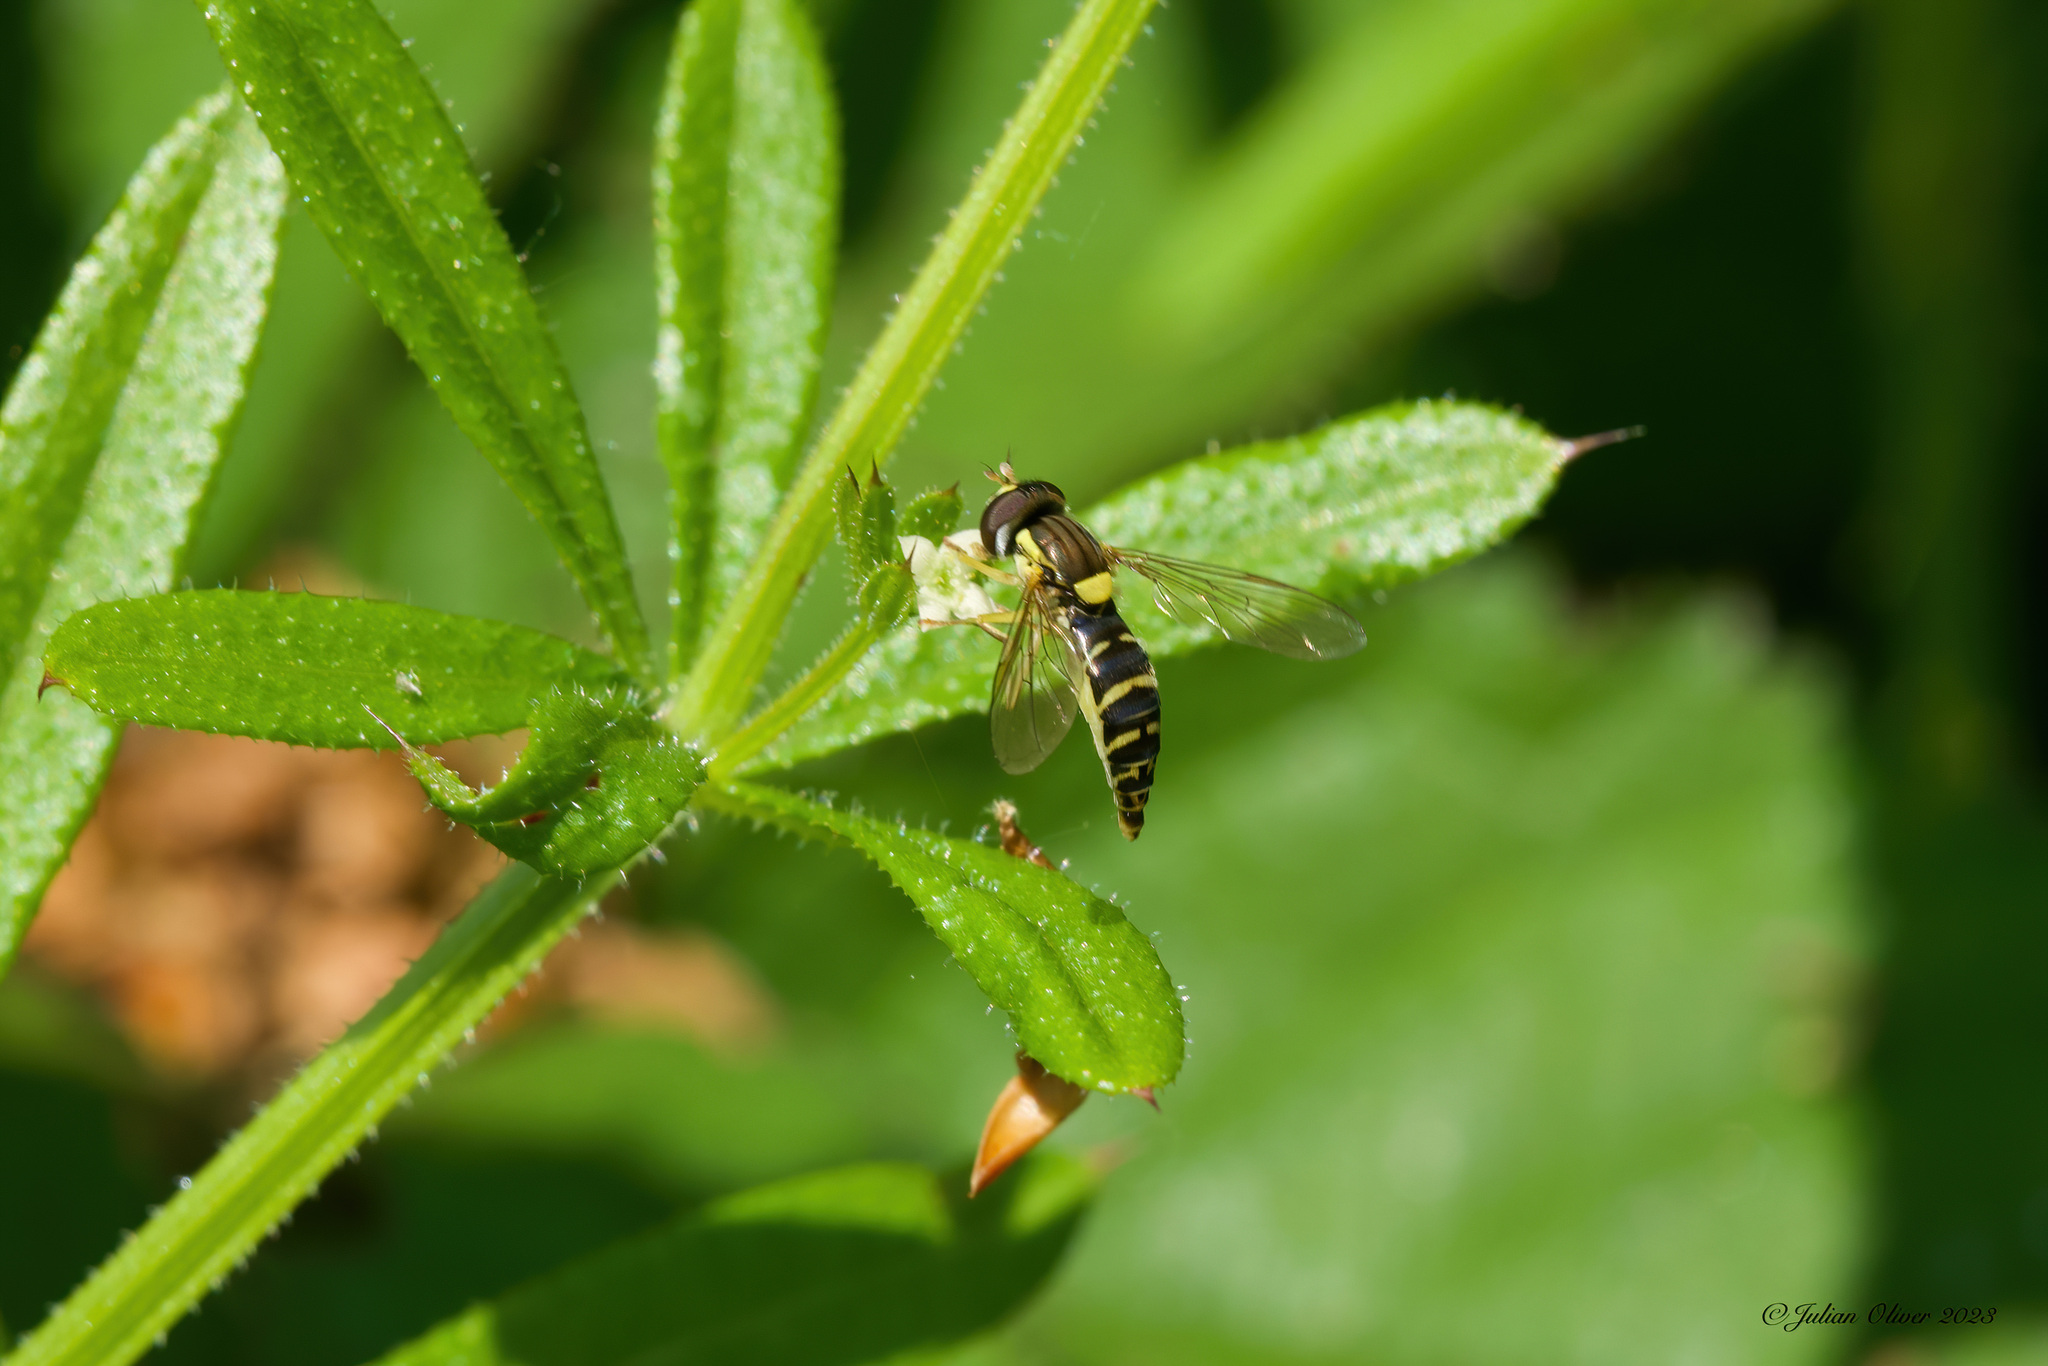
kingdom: Animalia
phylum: Arthropoda
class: Insecta
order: Diptera
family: Syrphidae
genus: Sphaerophoria
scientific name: Sphaerophoria
